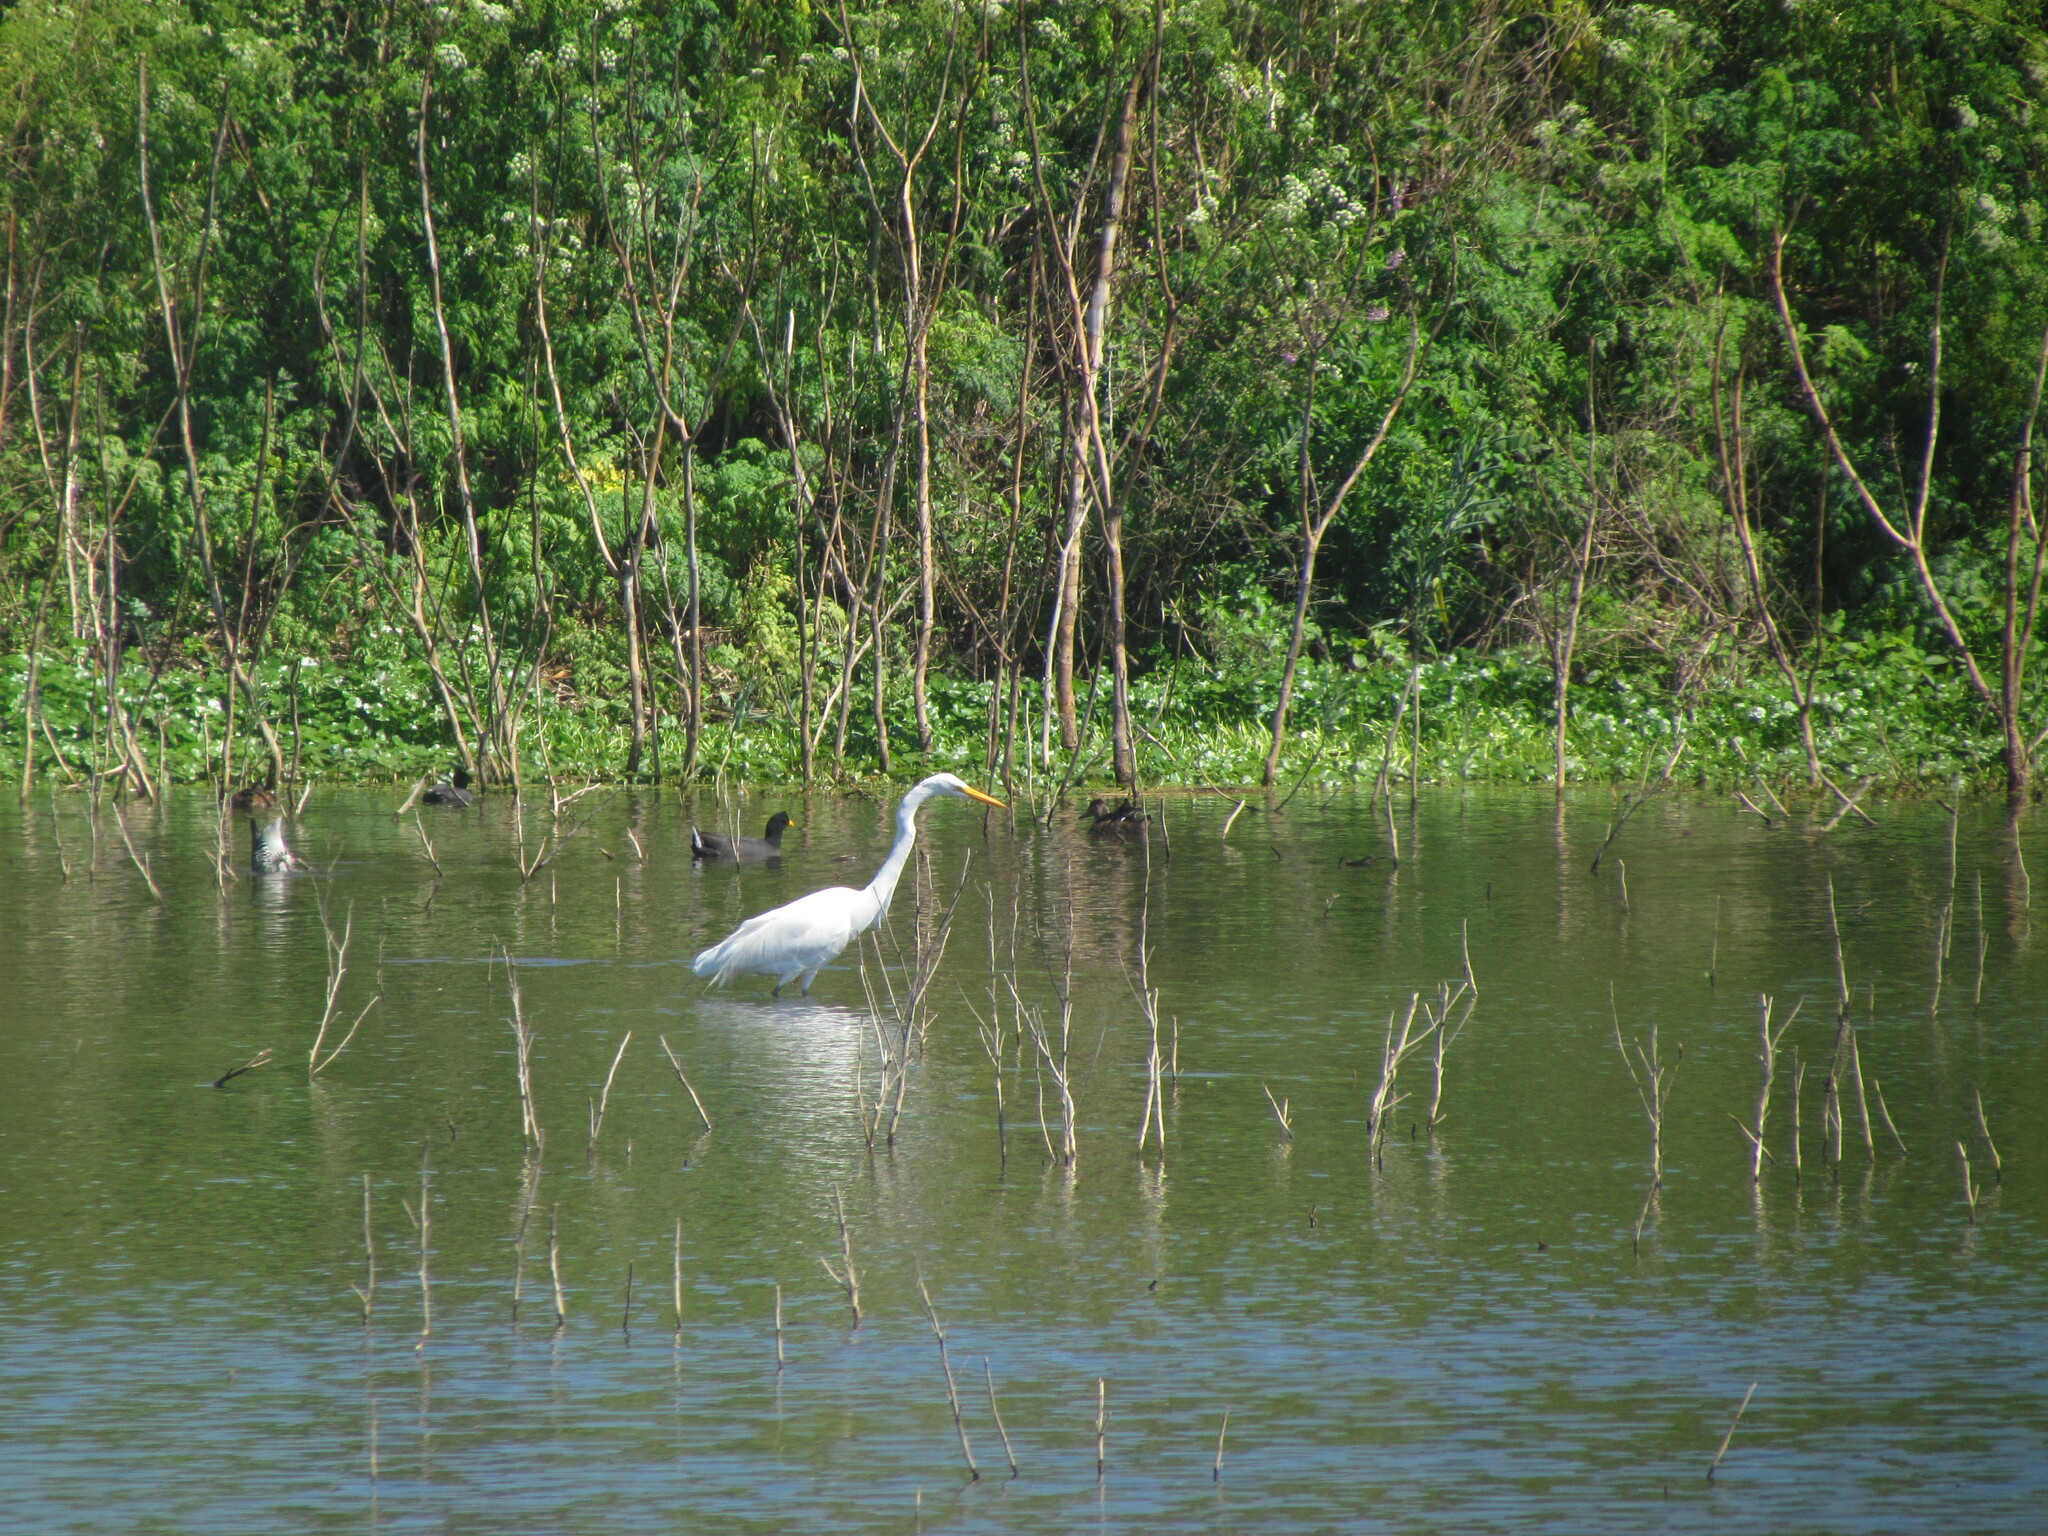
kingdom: Animalia
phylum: Chordata
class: Aves
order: Pelecaniformes
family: Ardeidae
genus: Ardea
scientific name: Ardea alba
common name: Great egret
